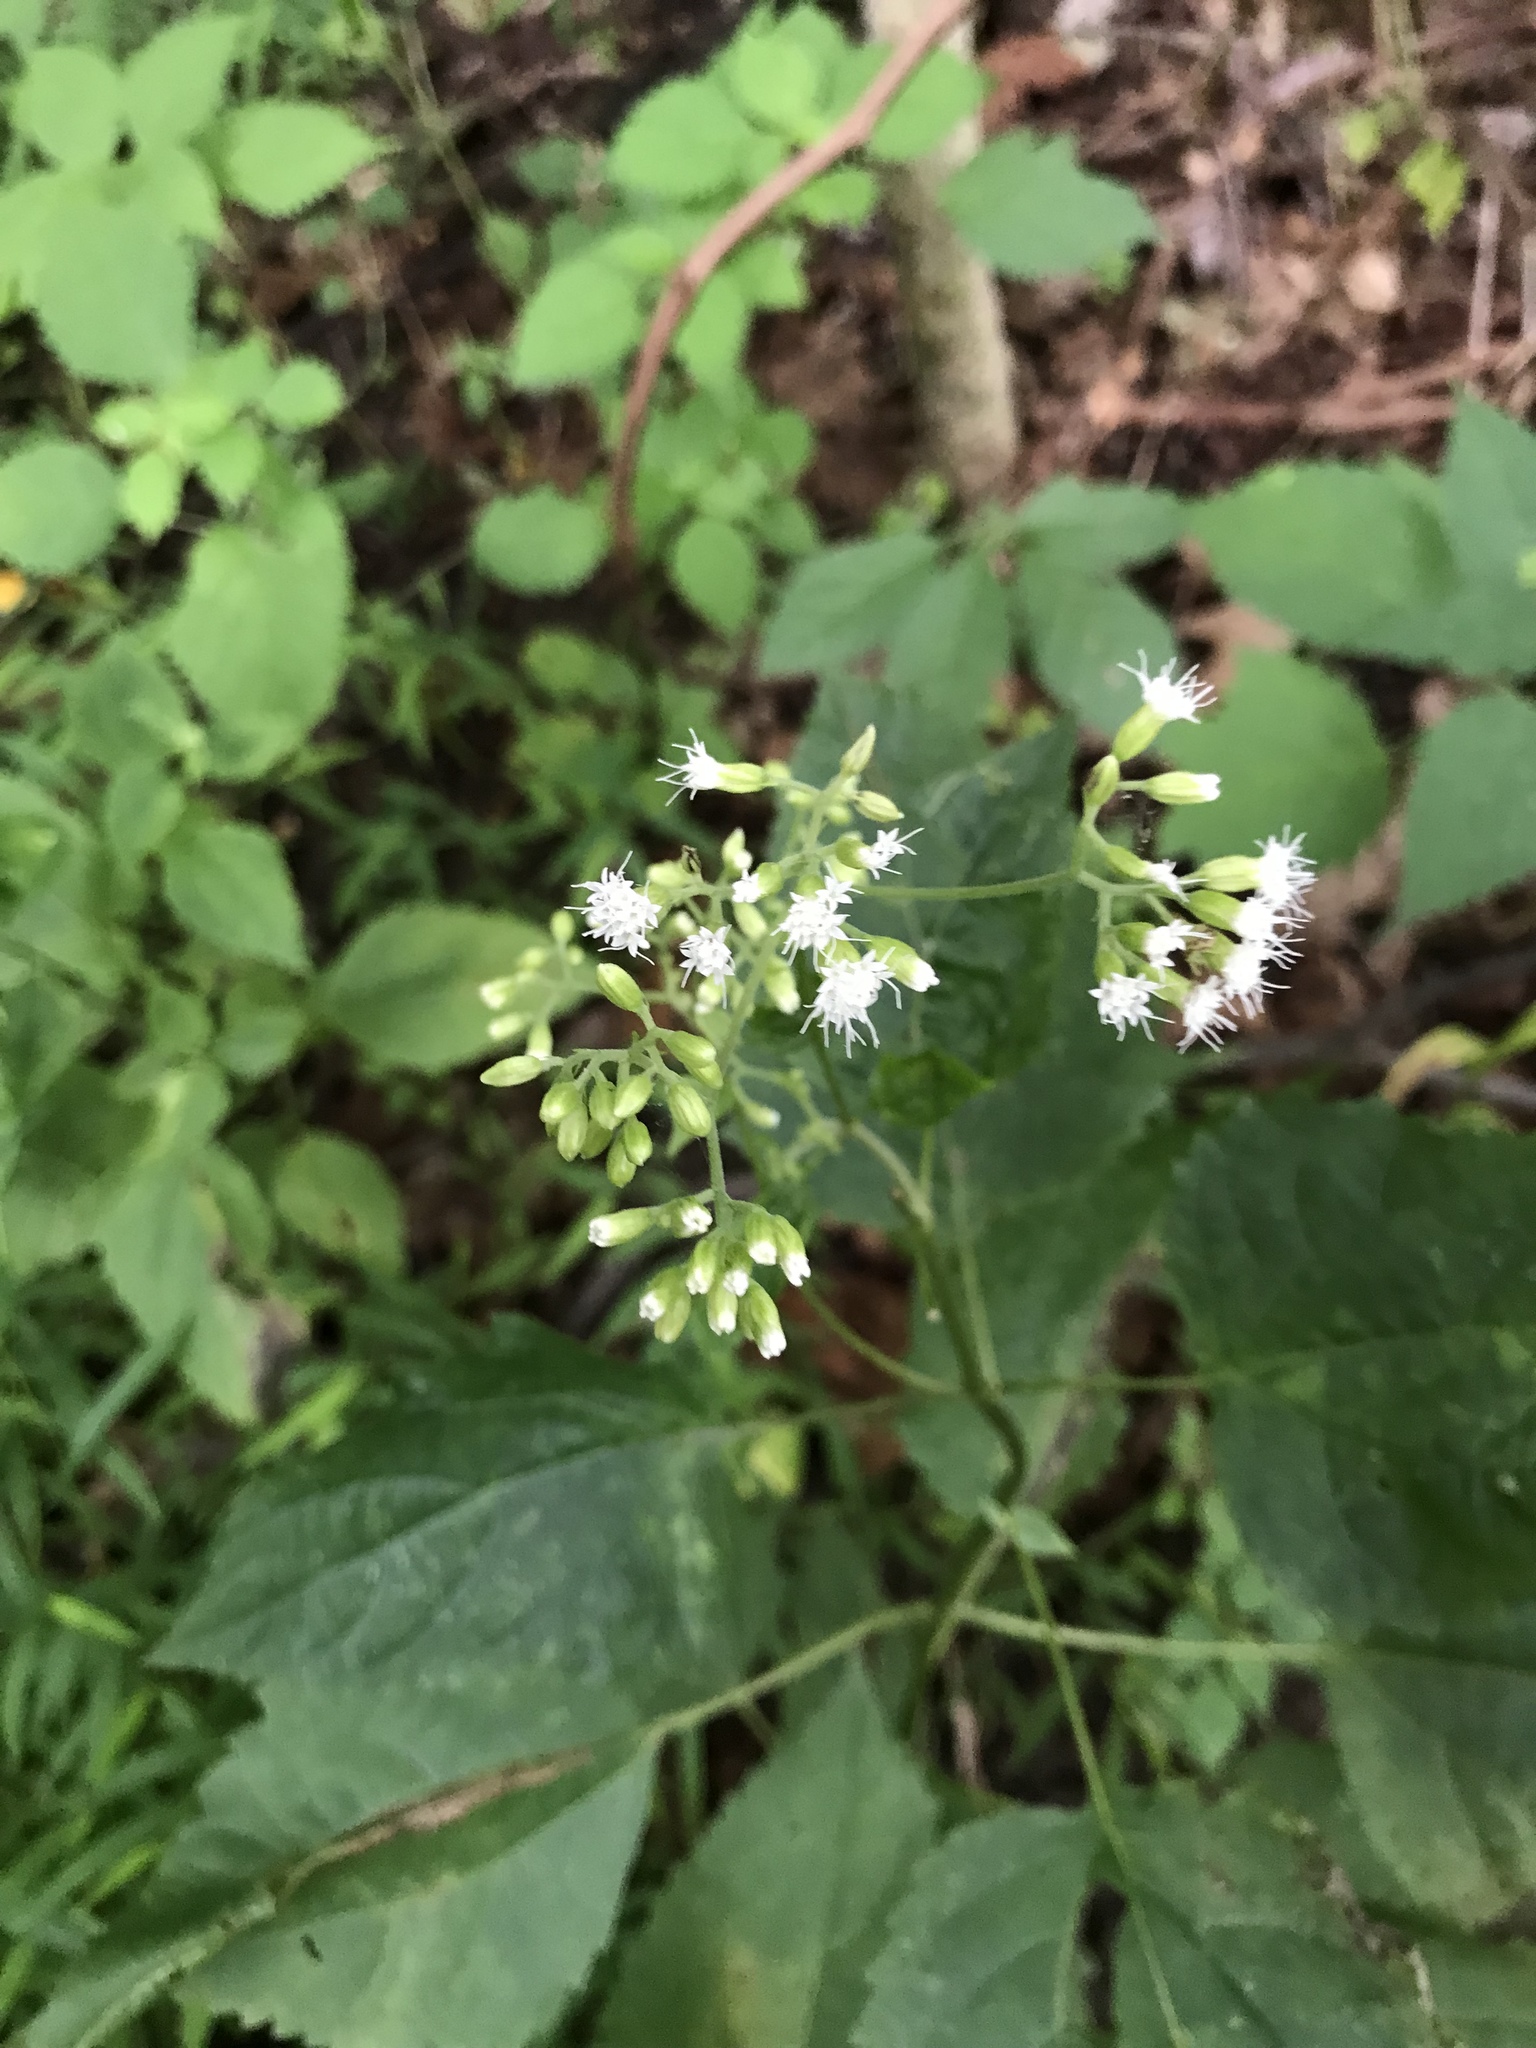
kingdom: Plantae
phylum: Tracheophyta
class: Magnoliopsida
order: Asterales
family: Asteraceae
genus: Ageratina
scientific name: Ageratina altissima
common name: White snakeroot
